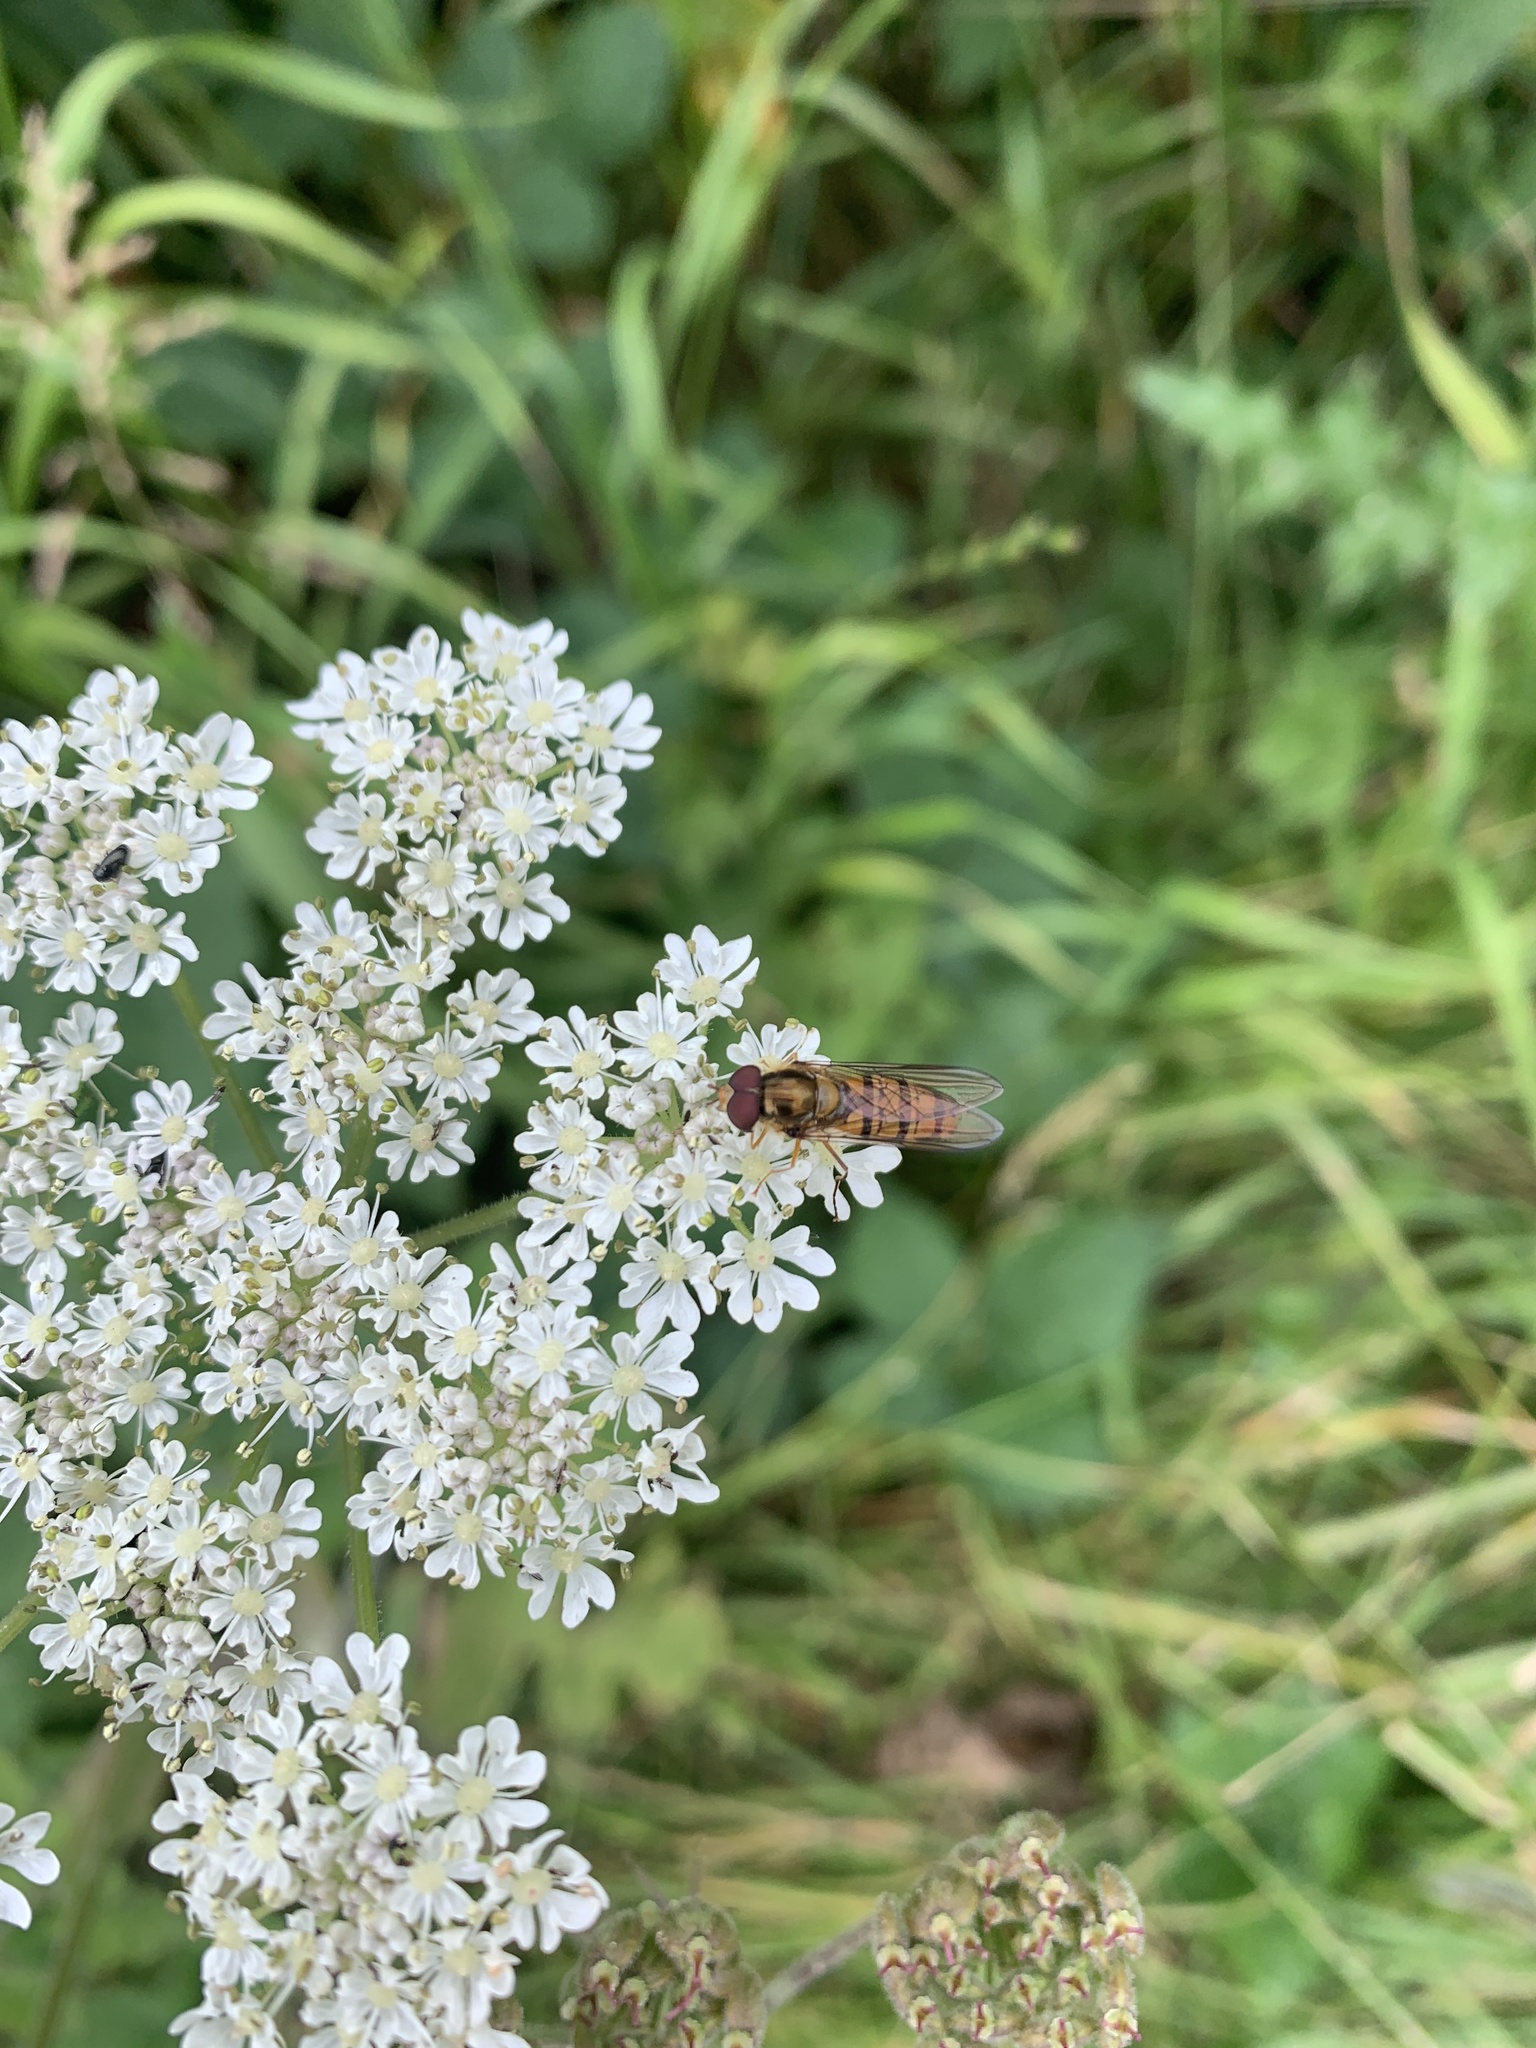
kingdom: Animalia
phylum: Arthropoda
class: Insecta
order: Diptera
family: Syrphidae
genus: Episyrphus
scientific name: Episyrphus balteatus
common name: Marmalade hoverfly
